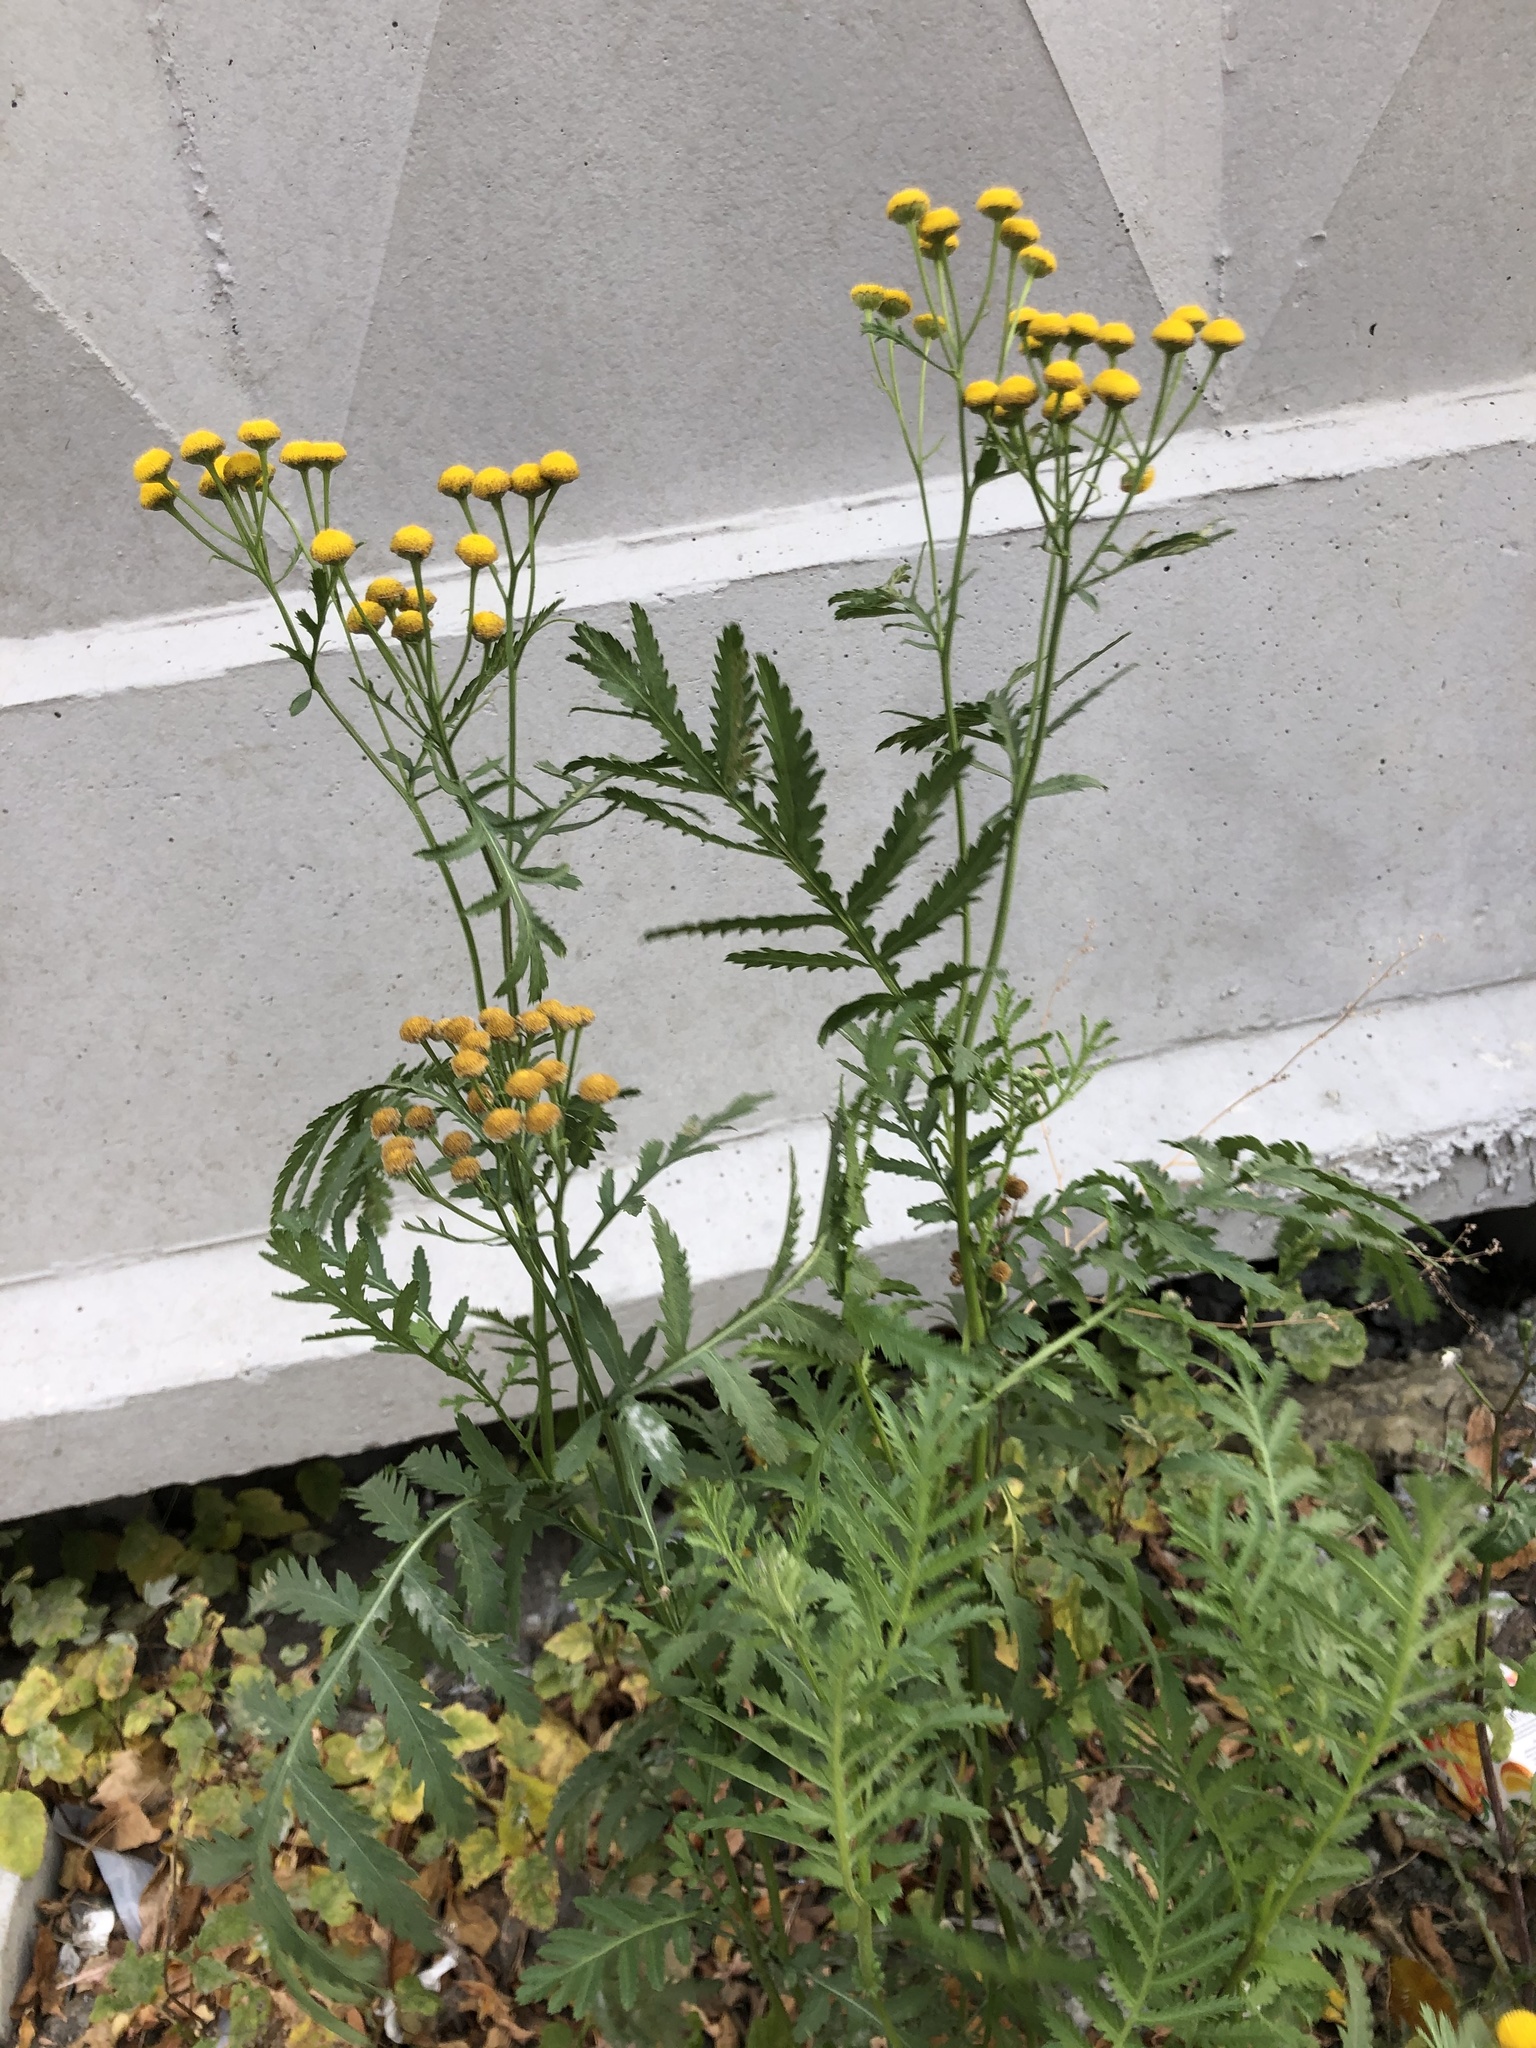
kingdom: Plantae
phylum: Tracheophyta
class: Magnoliopsida
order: Asterales
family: Asteraceae
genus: Tanacetum
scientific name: Tanacetum vulgare
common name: Common tansy
